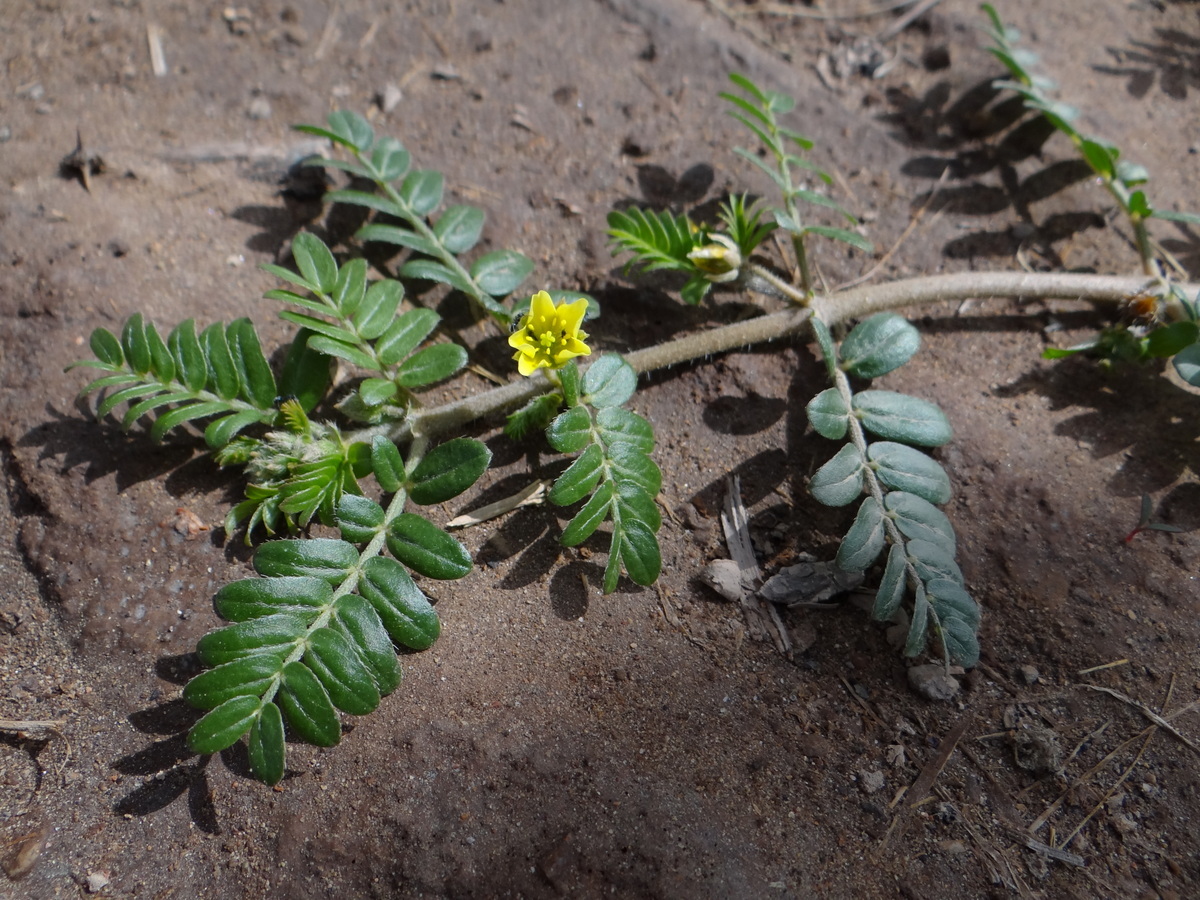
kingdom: Plantae
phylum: Tracheophyta
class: Magnoliopsida
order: Zygophyllales
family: Zygophyllaceae
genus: Tribulus
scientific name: Tribulus terrestris
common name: Puncturevine
